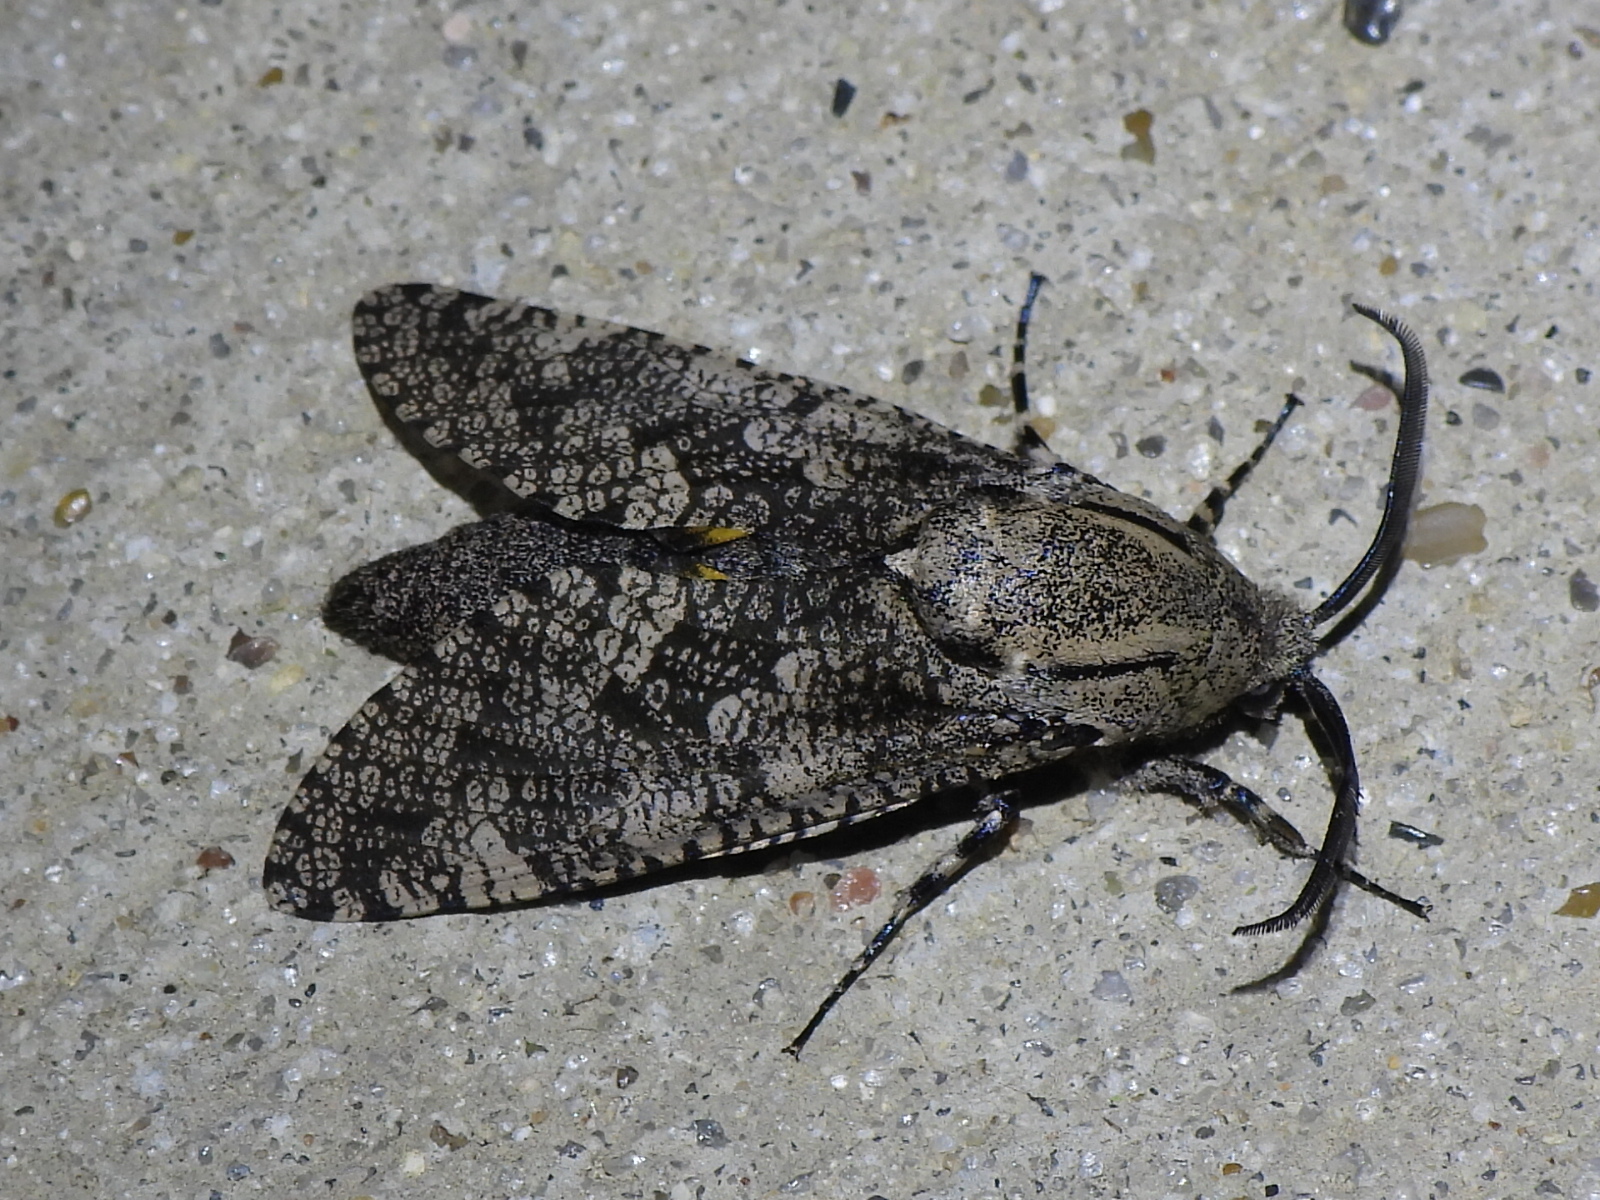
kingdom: Animalia
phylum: Arthropoda
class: Insecta
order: Lepidoptera
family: Cossidae
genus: Prionoxystus
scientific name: Prionoxystus robiniae
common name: Carpenterworm
